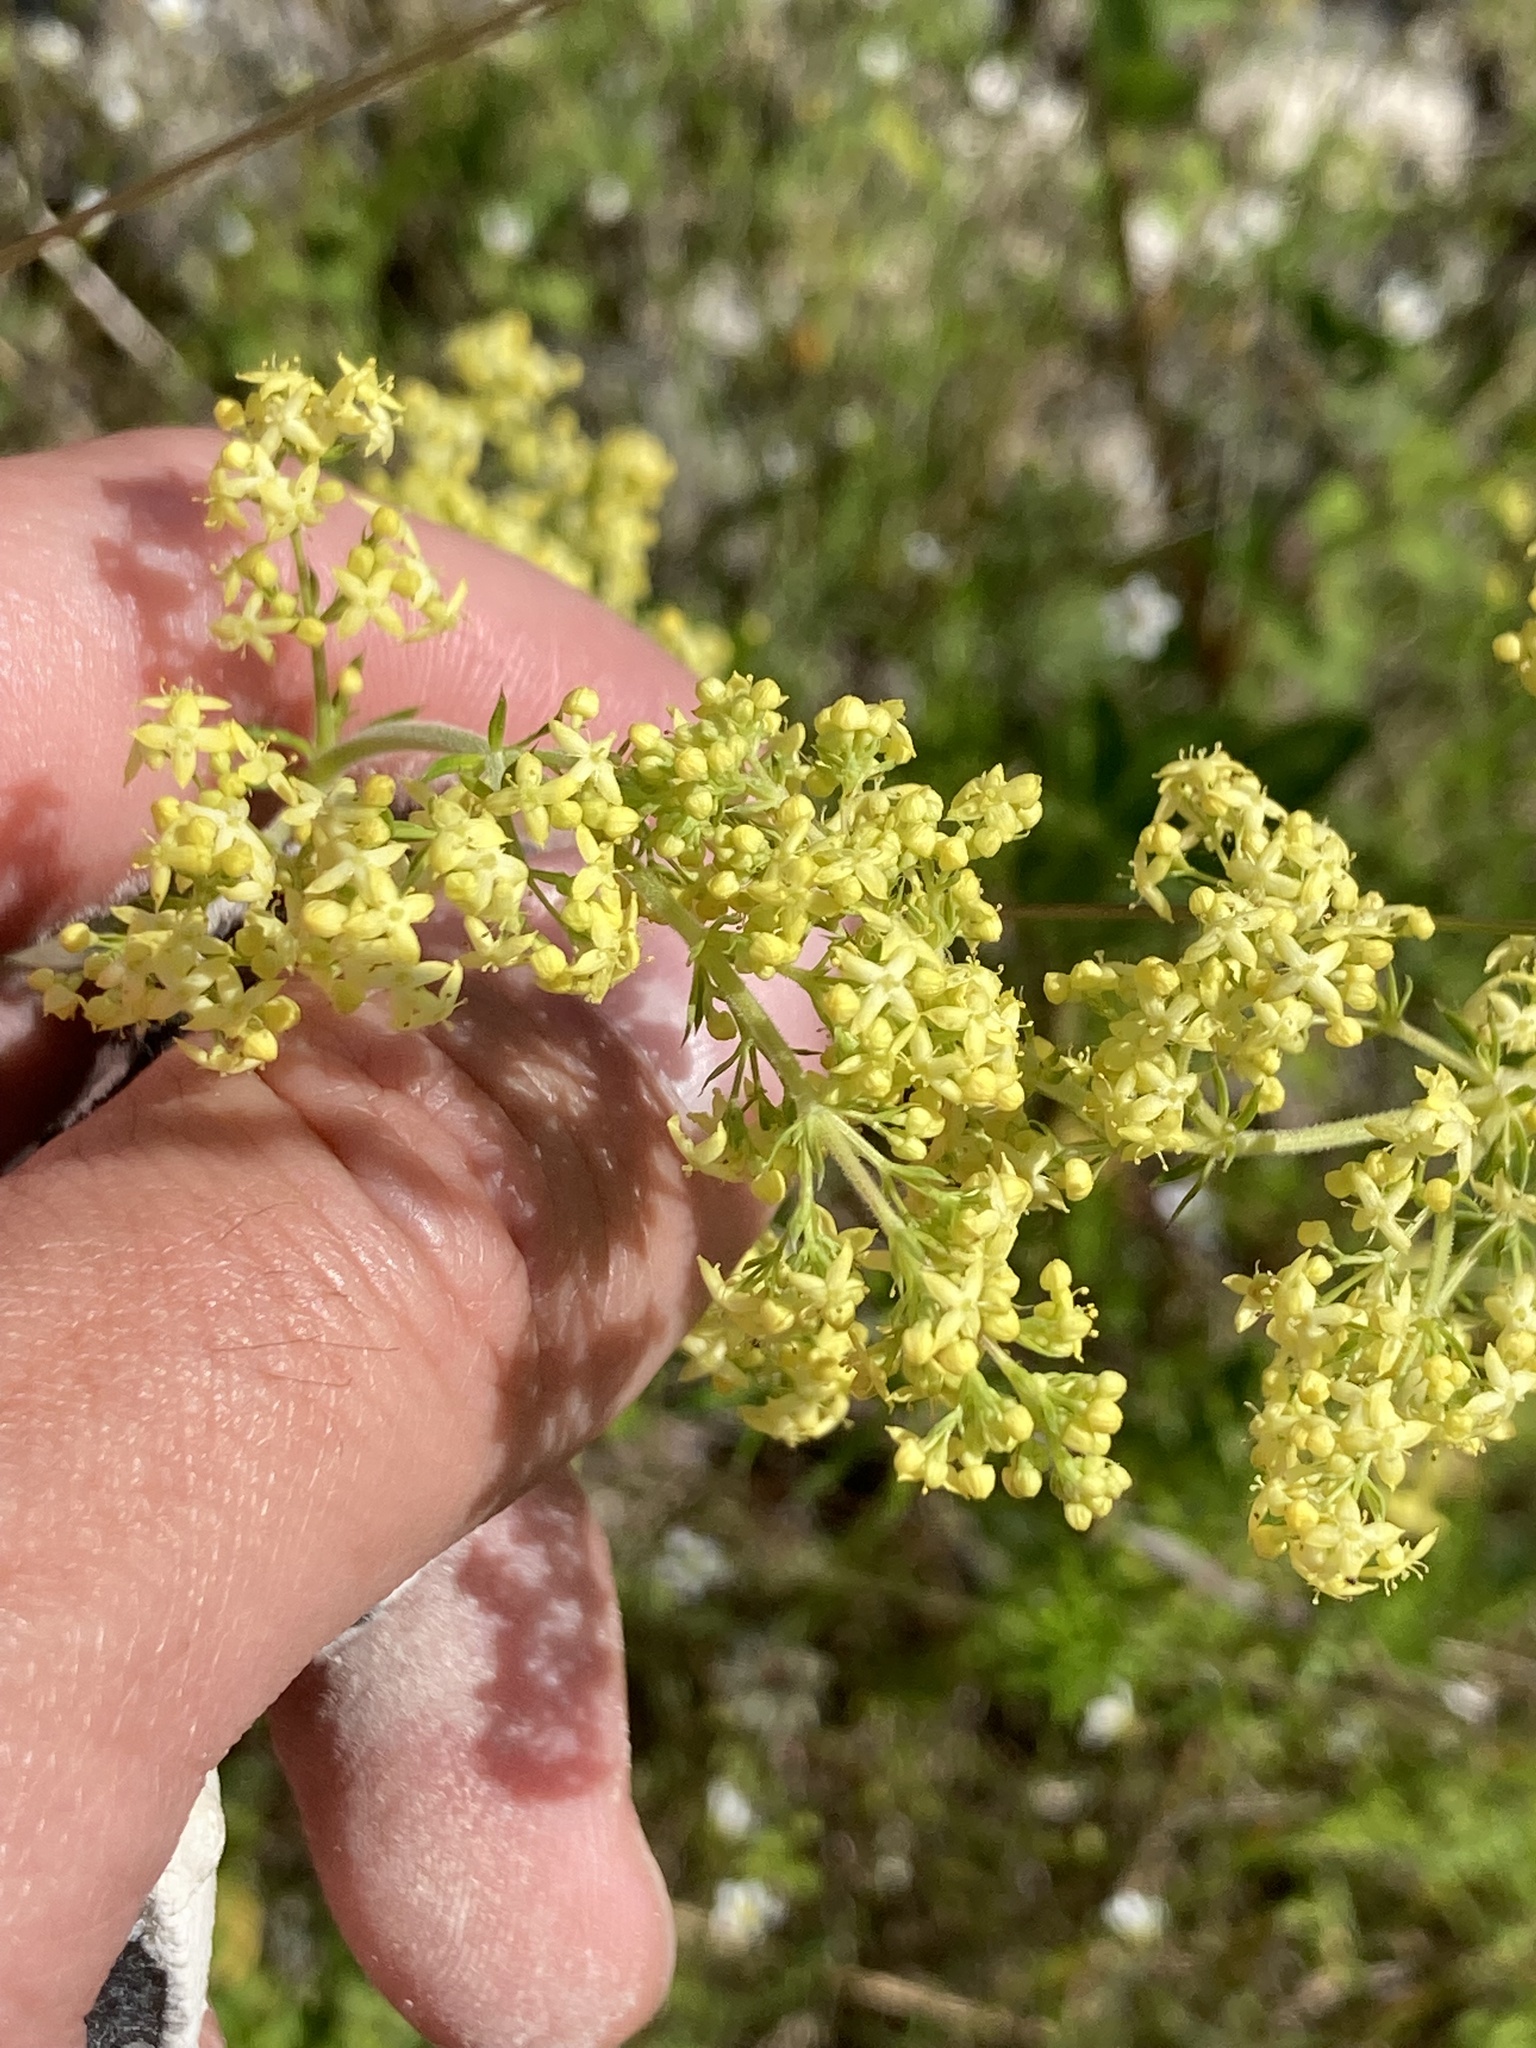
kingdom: Plantae
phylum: Tracheophyta
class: Magnoliopsida
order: Gentianales
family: Rubiaceae
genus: Galium
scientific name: Galium verum
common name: Lady's bedstraw
